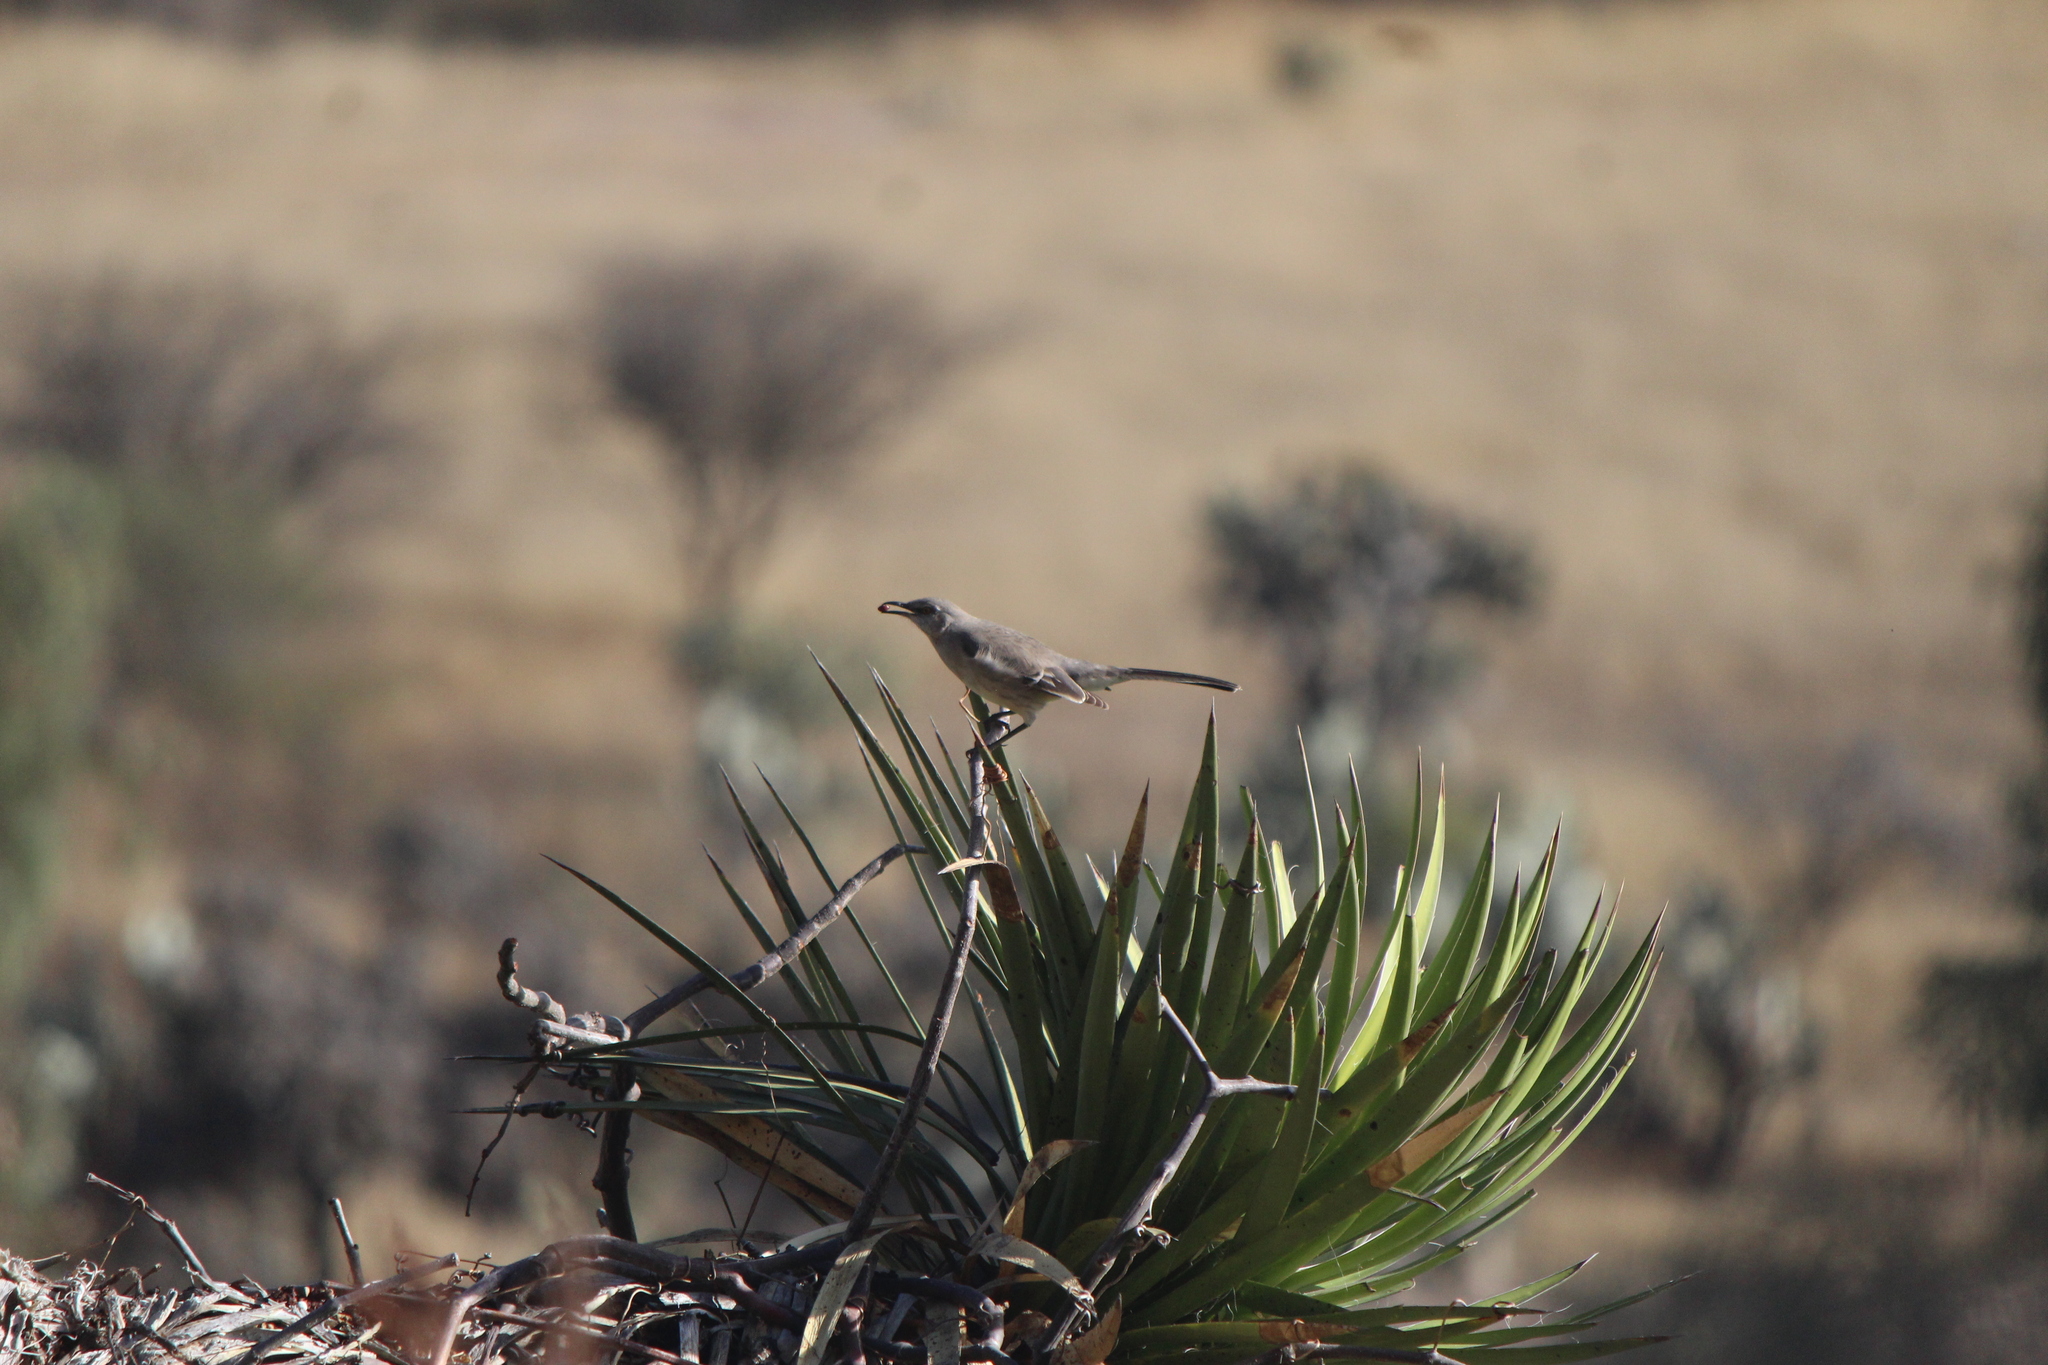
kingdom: Animalia
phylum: Chordata
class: Aves
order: Passeriformes
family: Mimidae
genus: Mimus
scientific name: Mimus polyglottos
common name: Northern mockingbird
